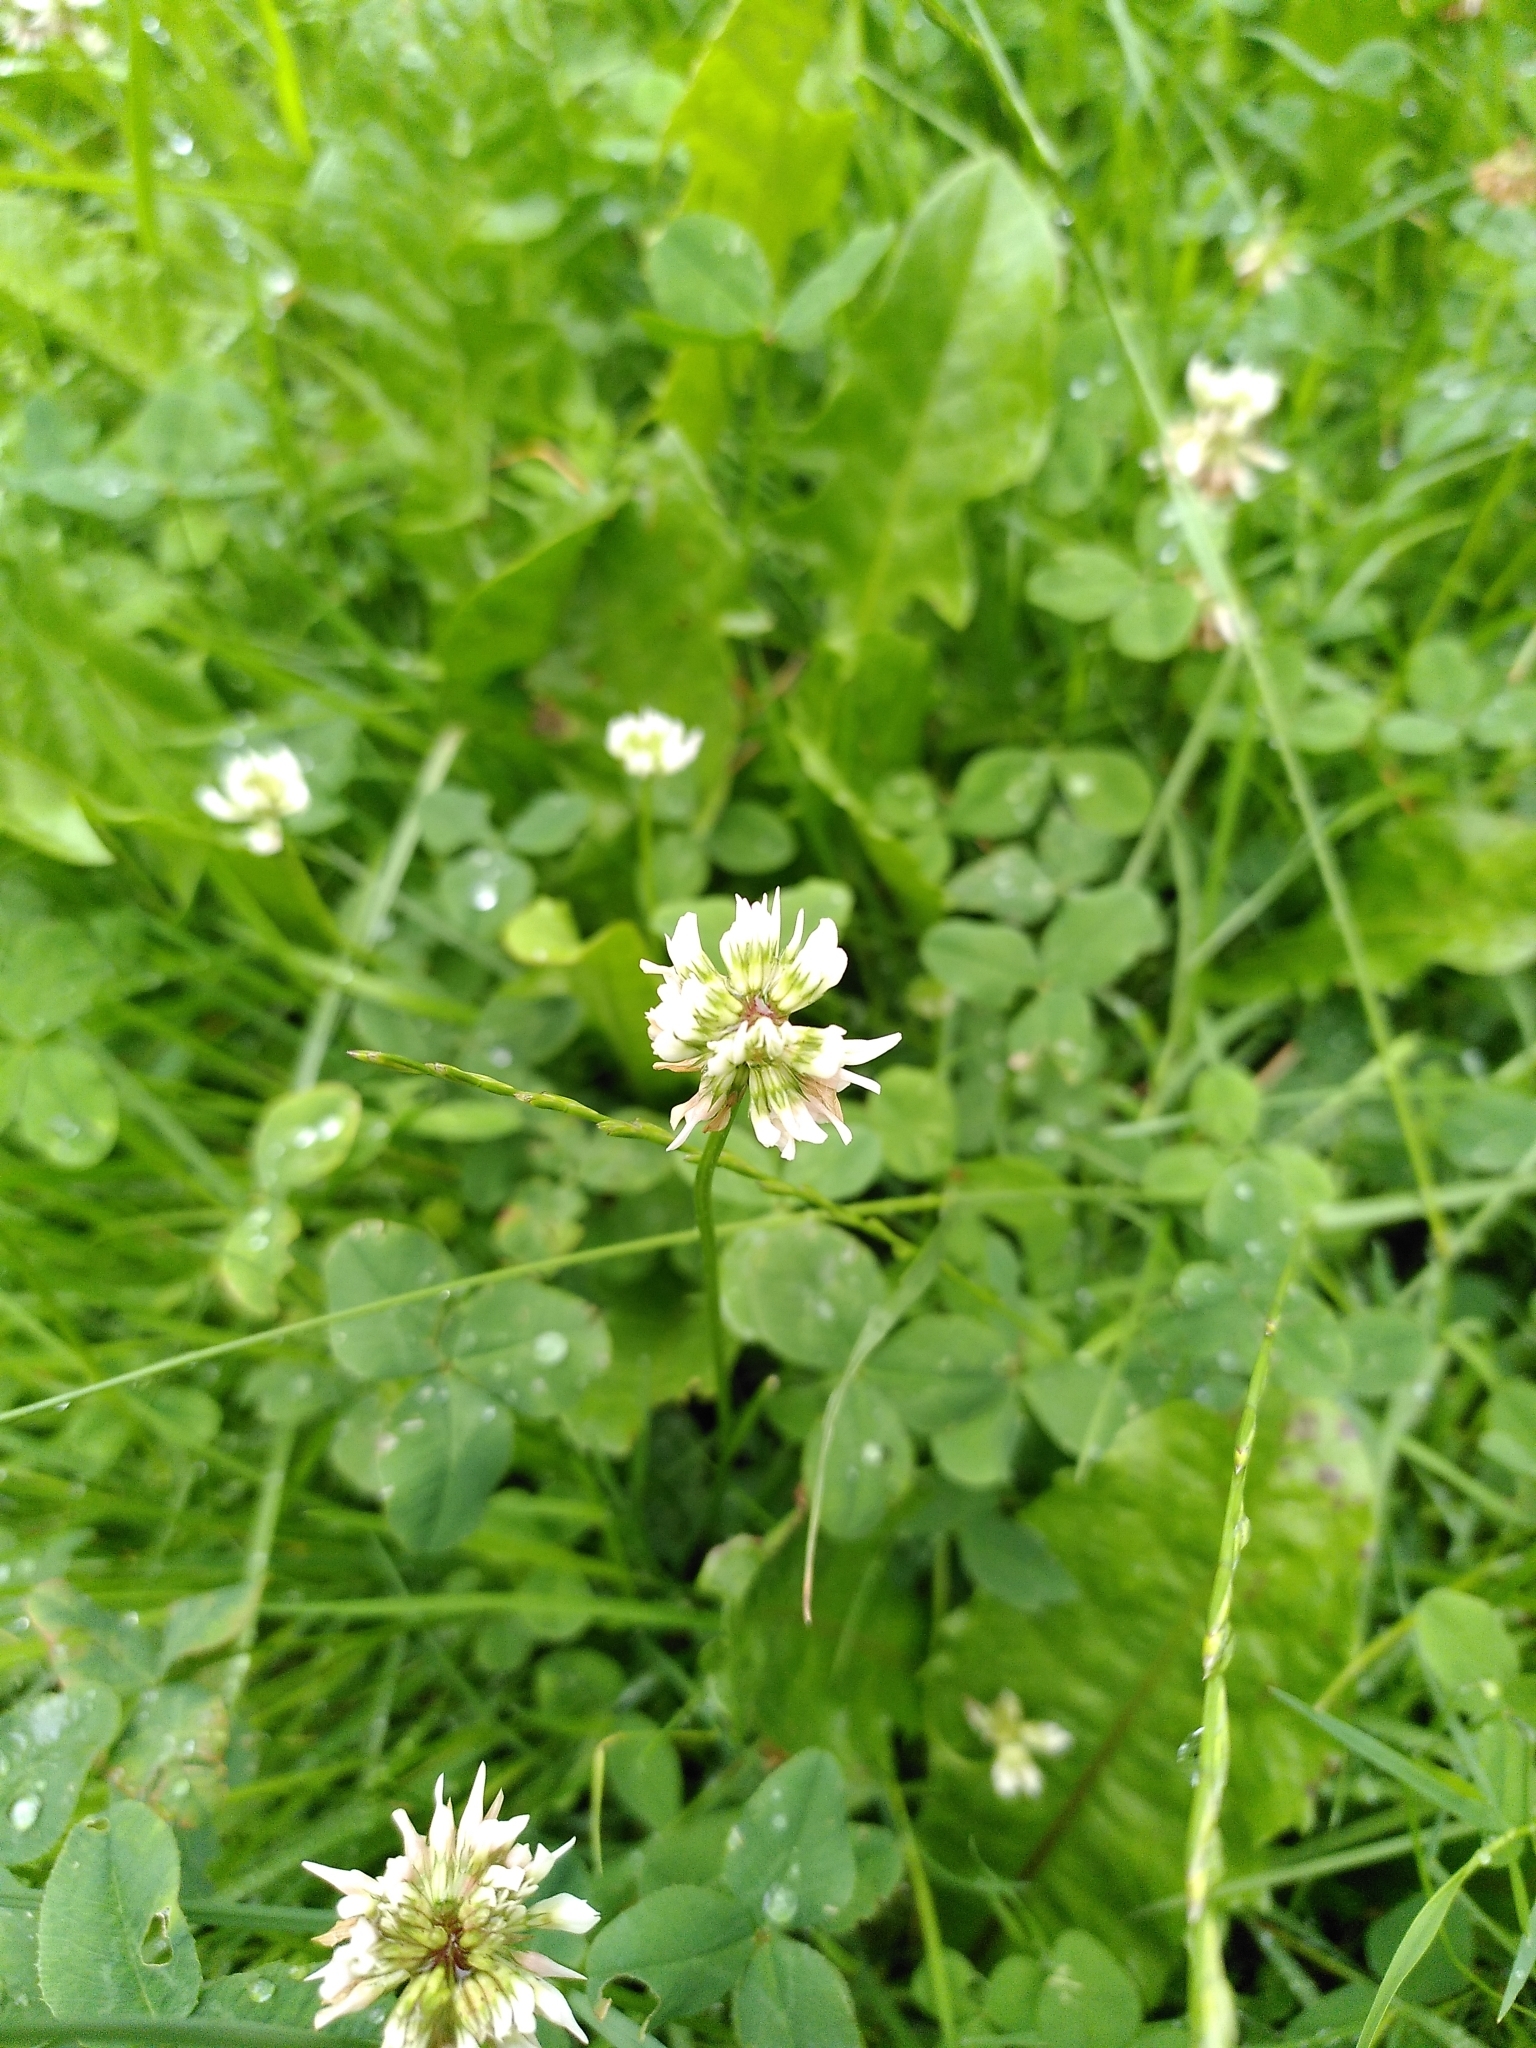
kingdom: Plantae
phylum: Tracheophyta
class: Magnoliopsida
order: Fabales
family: Fabaceae
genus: Trifolium
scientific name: Trifolium repens
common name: White clover
